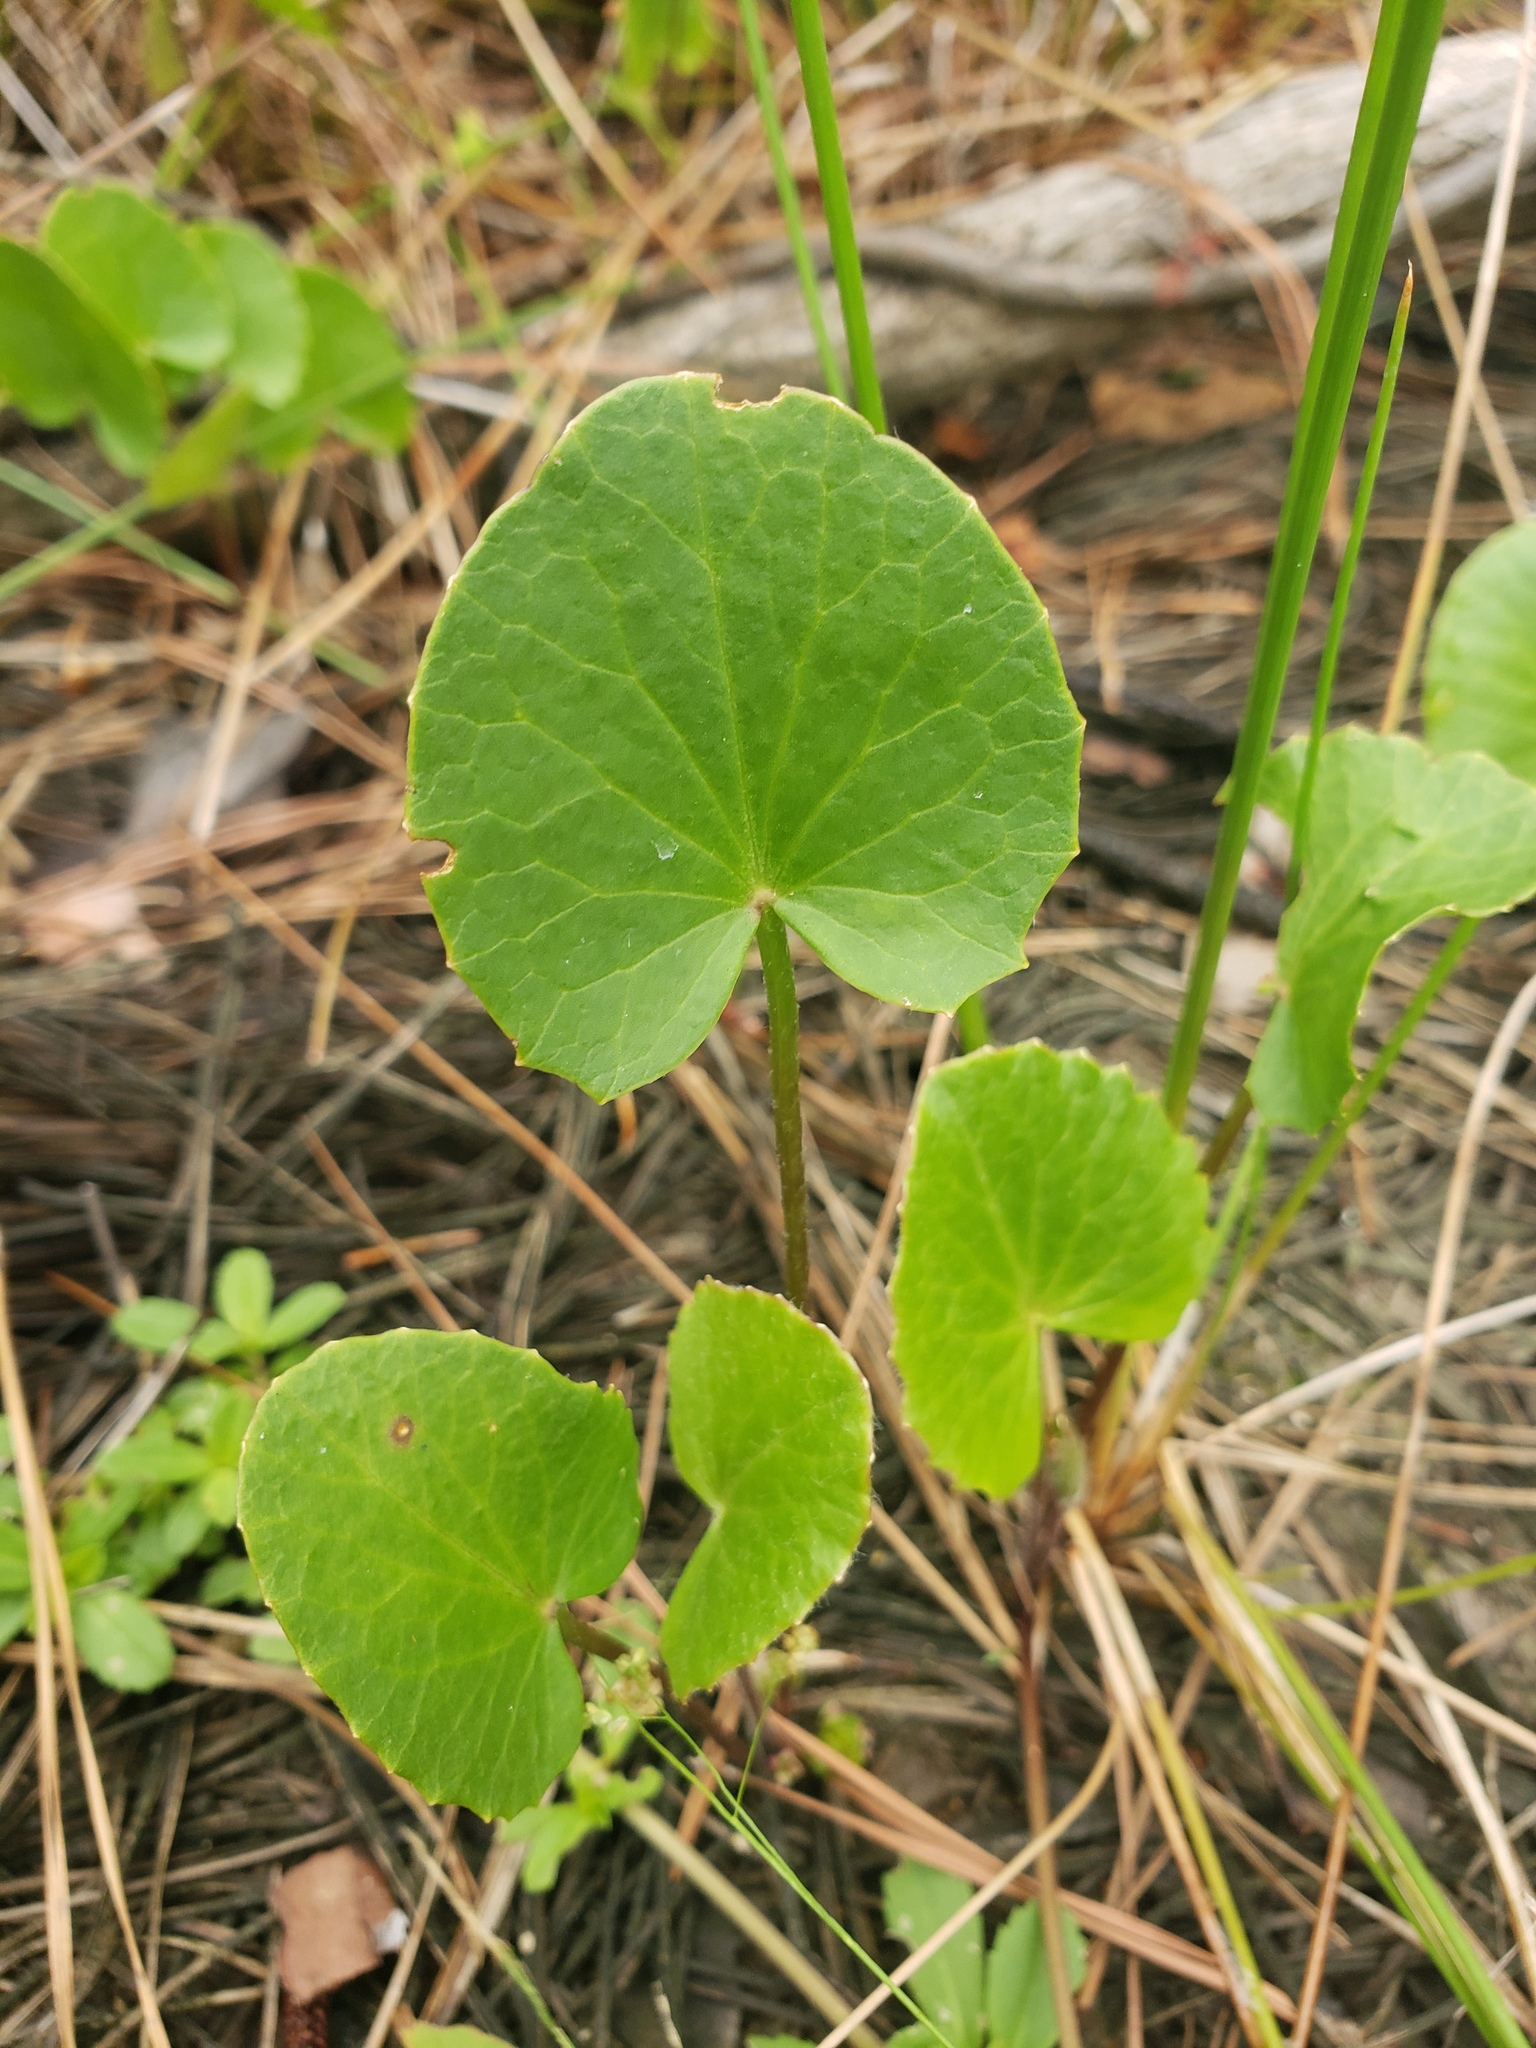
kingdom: Plantae
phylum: Tracheophyta
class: Magnoliopsida
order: Apiales
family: Apiaceae
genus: Centella
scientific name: Centella erecta
